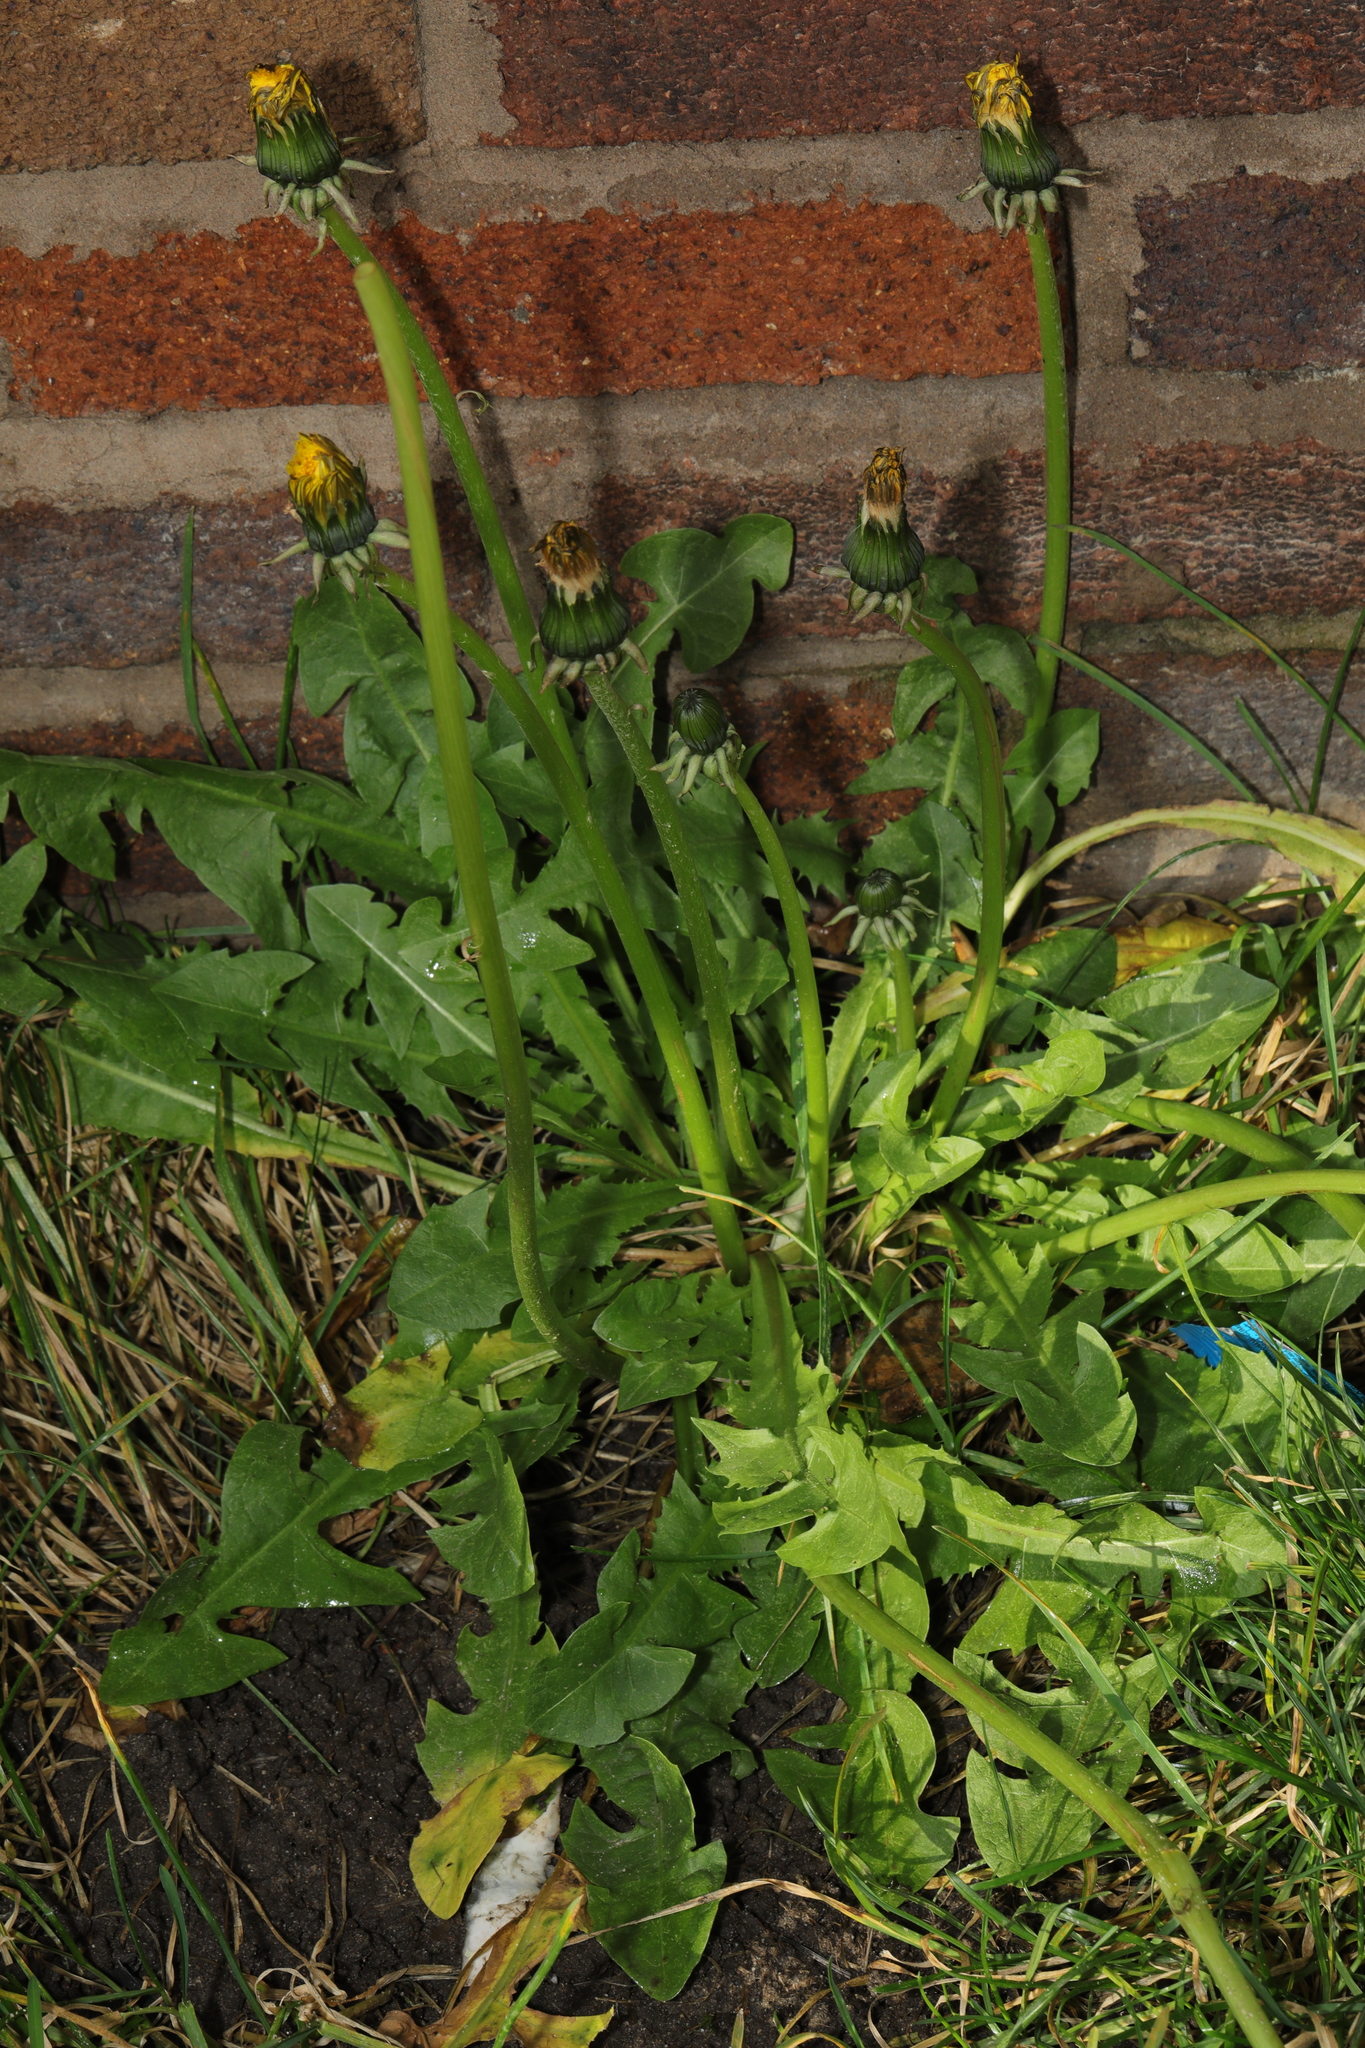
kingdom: Plantae
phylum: Tracheophyta
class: Magnoliopsida
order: Asterales
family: Asteraceae
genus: Taraxacum
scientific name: Taraxacum officinale
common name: Common dandelion
